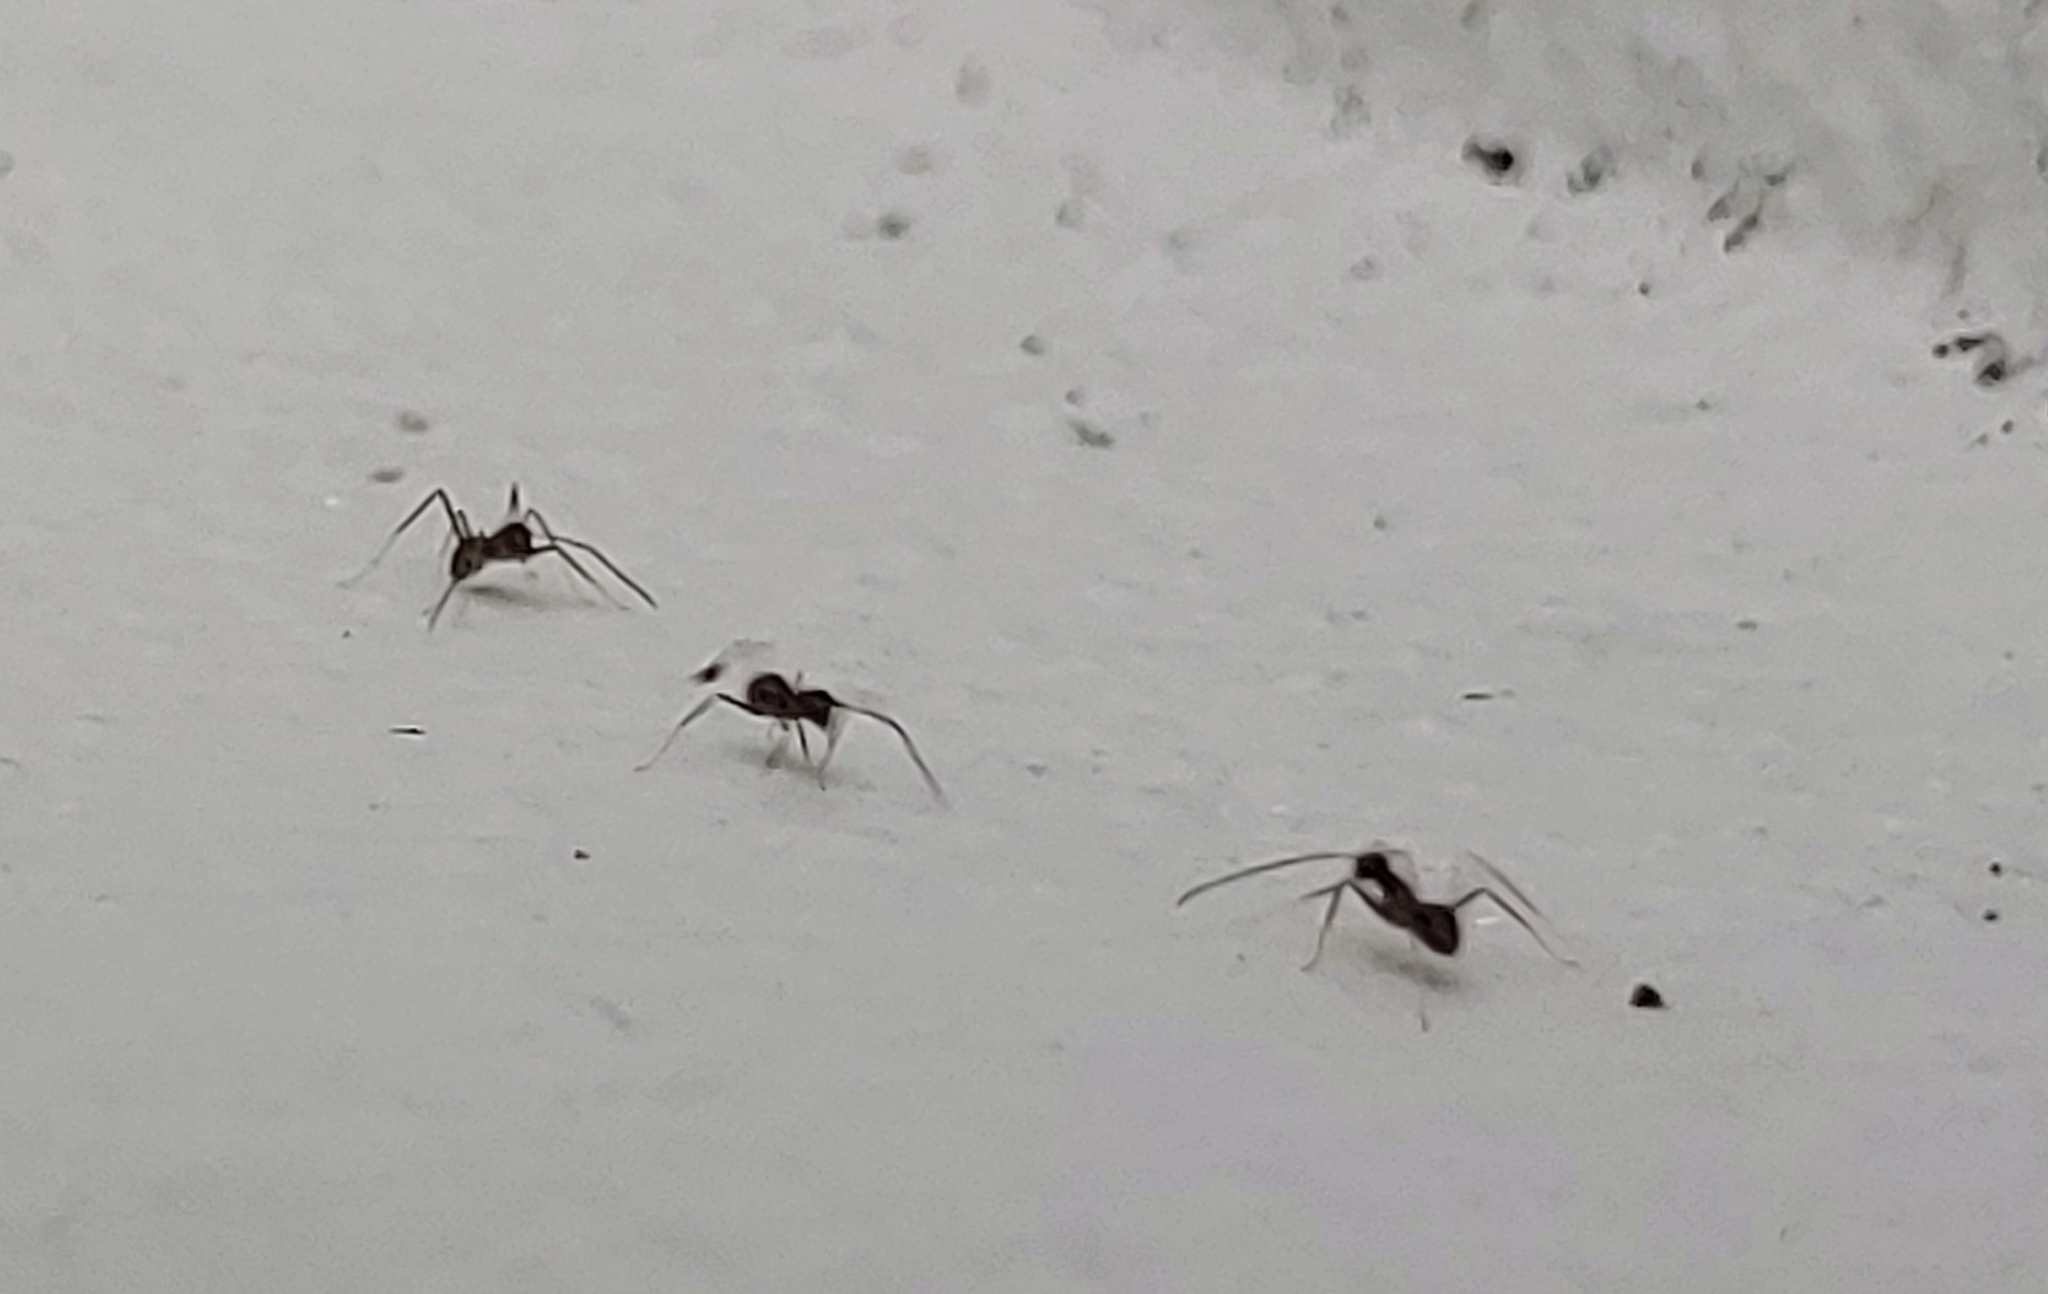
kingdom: Animalia
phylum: Arthropoda
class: Insecta
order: Hymenoptera
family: Formicidae
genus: Paratrechina
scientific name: Paratrechina longicornis
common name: Longhorned crazy ant
